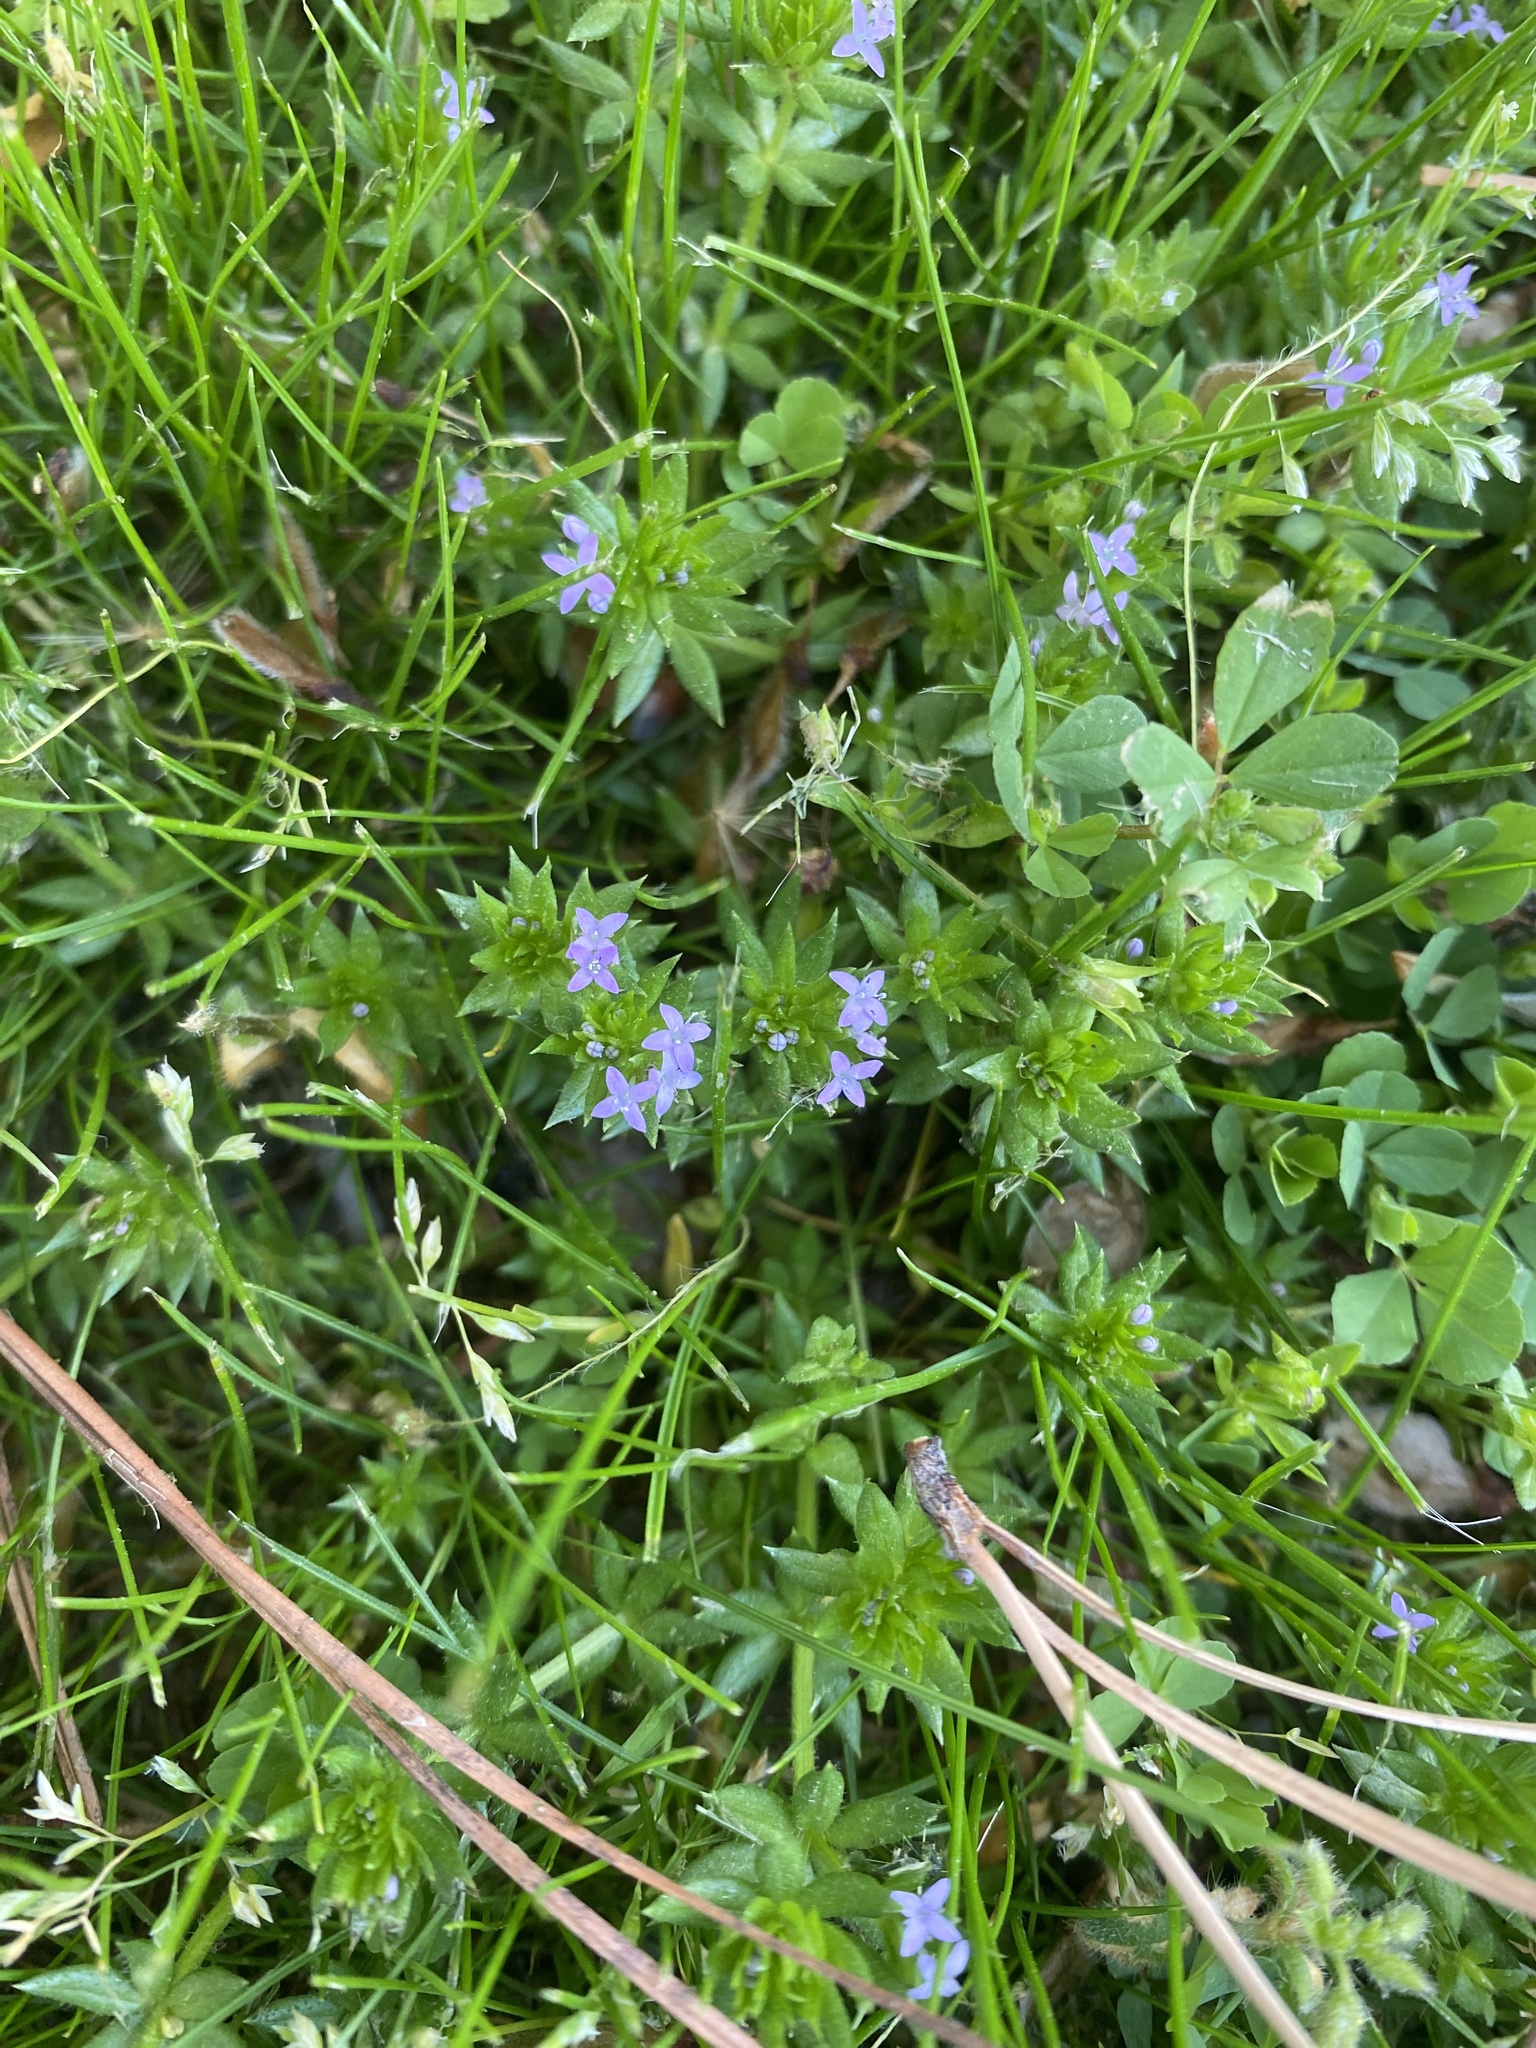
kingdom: Plantae
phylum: Tracheophyta
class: Magnoliopsida
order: Gentianales
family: Rubiaceae
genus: Sherardia
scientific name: Sherardia arvensis
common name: Field madder
